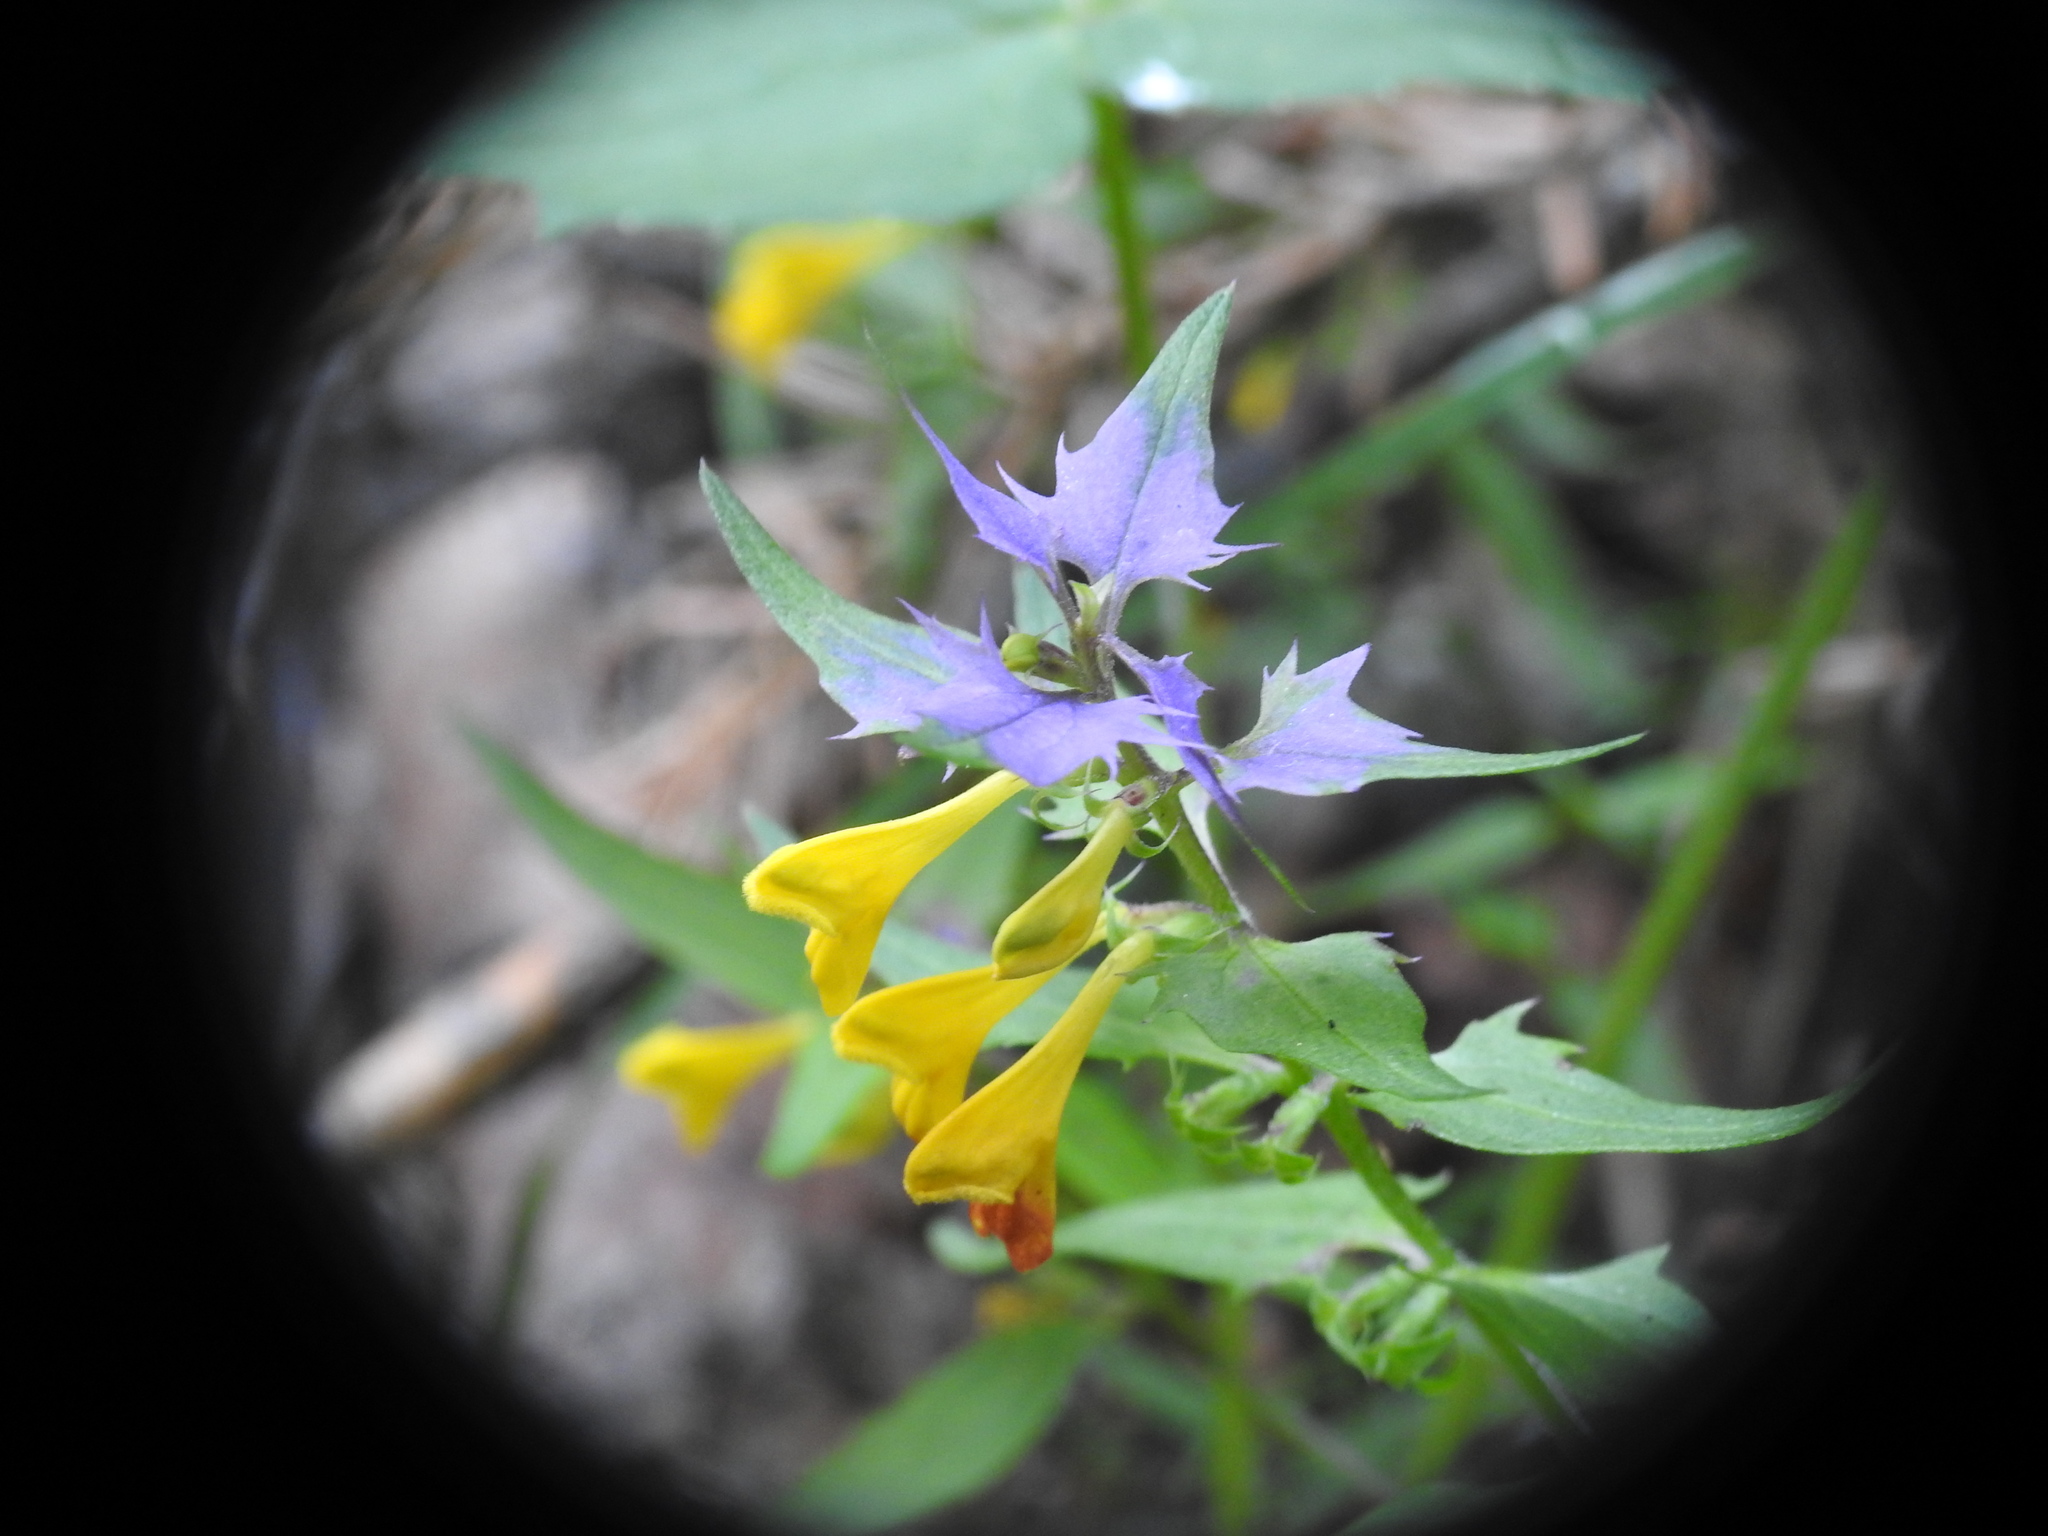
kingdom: Plantae
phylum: Tracheophyta
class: Magnoliopsida
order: Lamiales
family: Orobanchaceae
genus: Melampyrum
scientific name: Melampyrum catalaunicum
